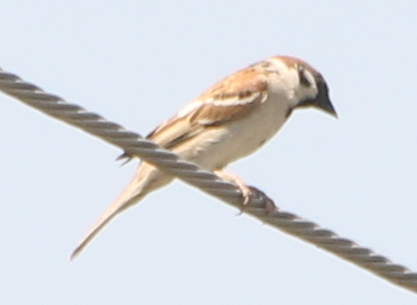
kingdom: Animalia
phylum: Chordata
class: Aves
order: Passeriformes
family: Passeridae
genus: Passer
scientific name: Passer montanus
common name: Eurasian tree sparrow
